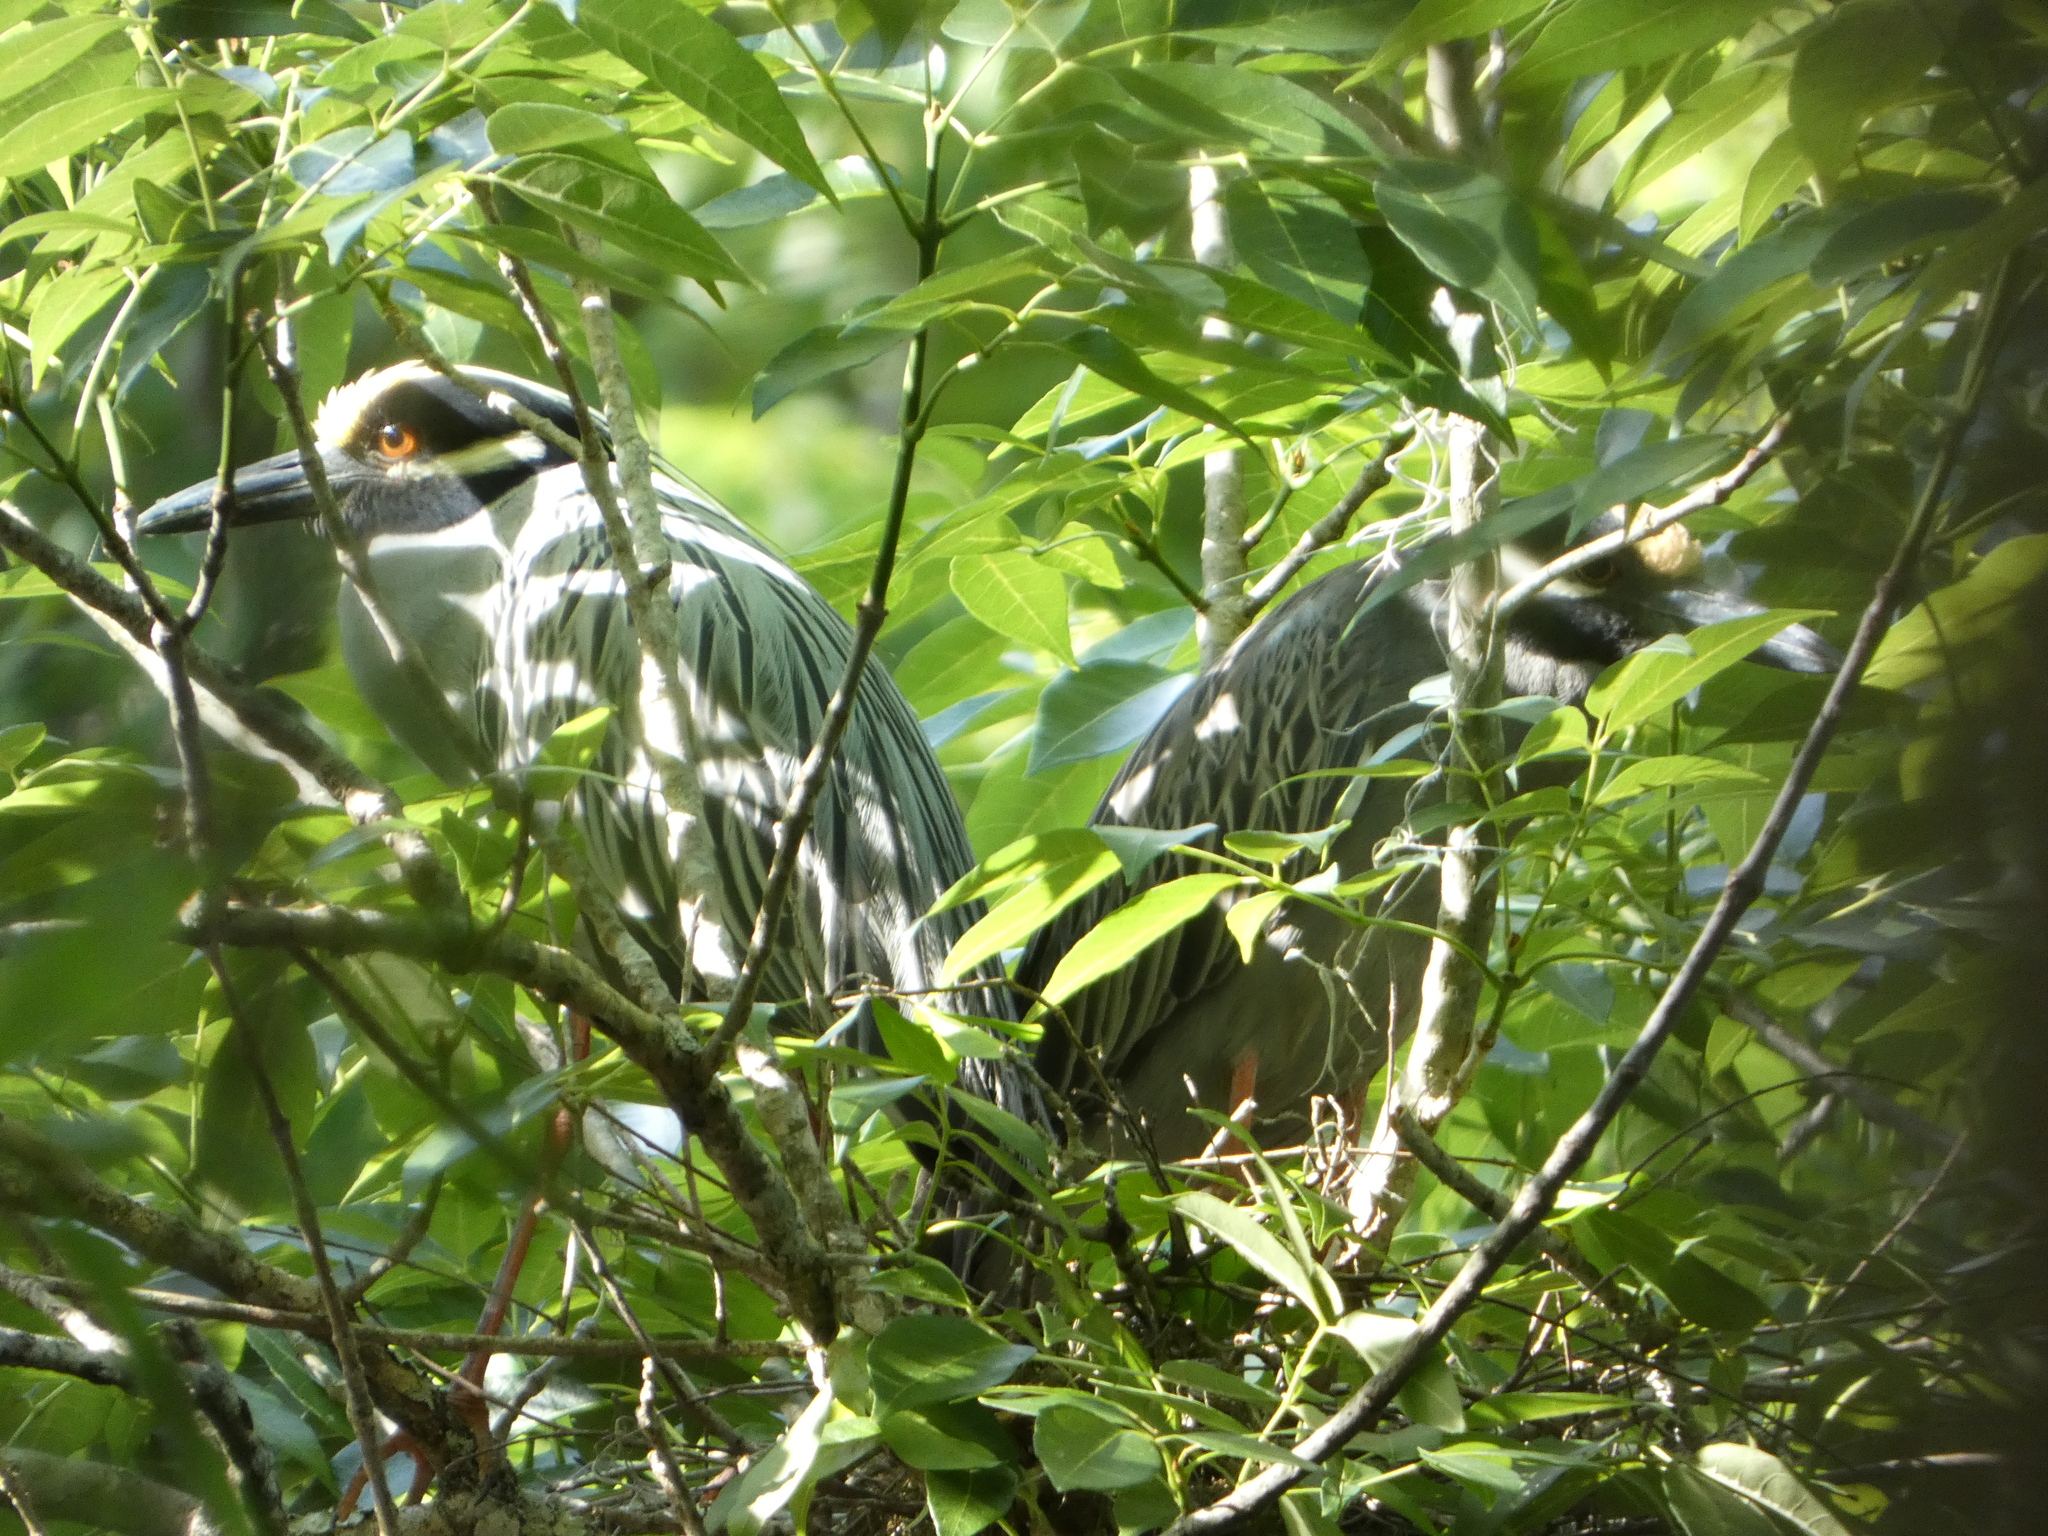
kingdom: Animalia
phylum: Chordata
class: Aves
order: Pelecaniformes
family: Ardeidae
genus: Nyctanassa
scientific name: Nyctanassa violacea
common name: Yellow-crowned night heron
